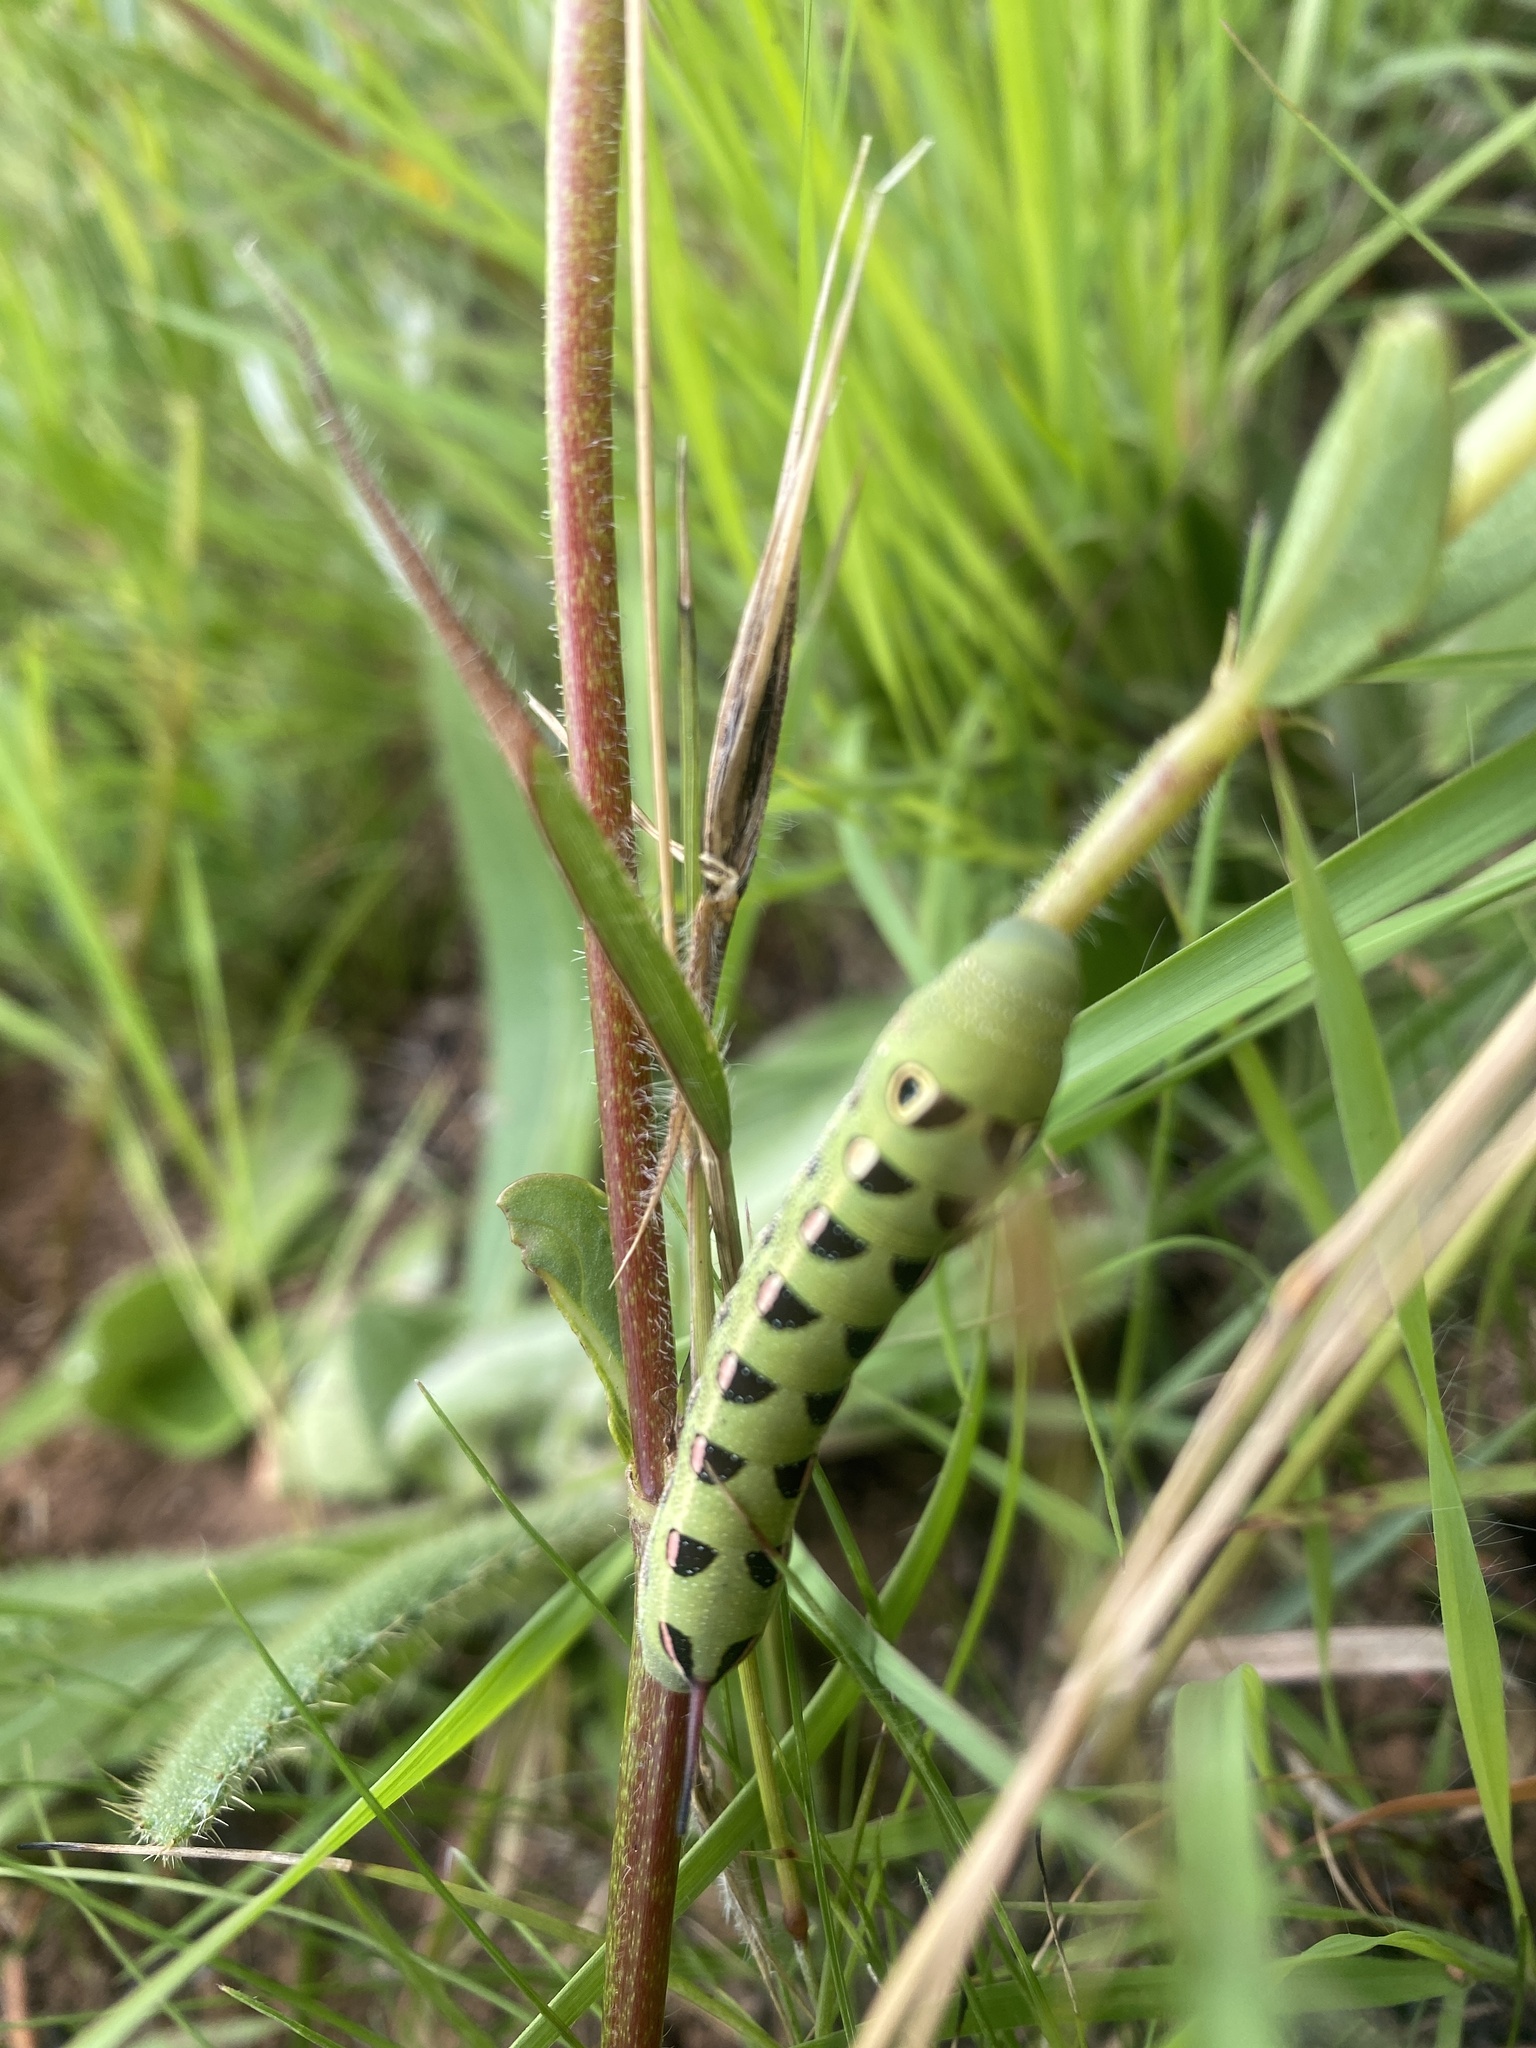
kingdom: Animalia
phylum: Arthropoda
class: Insecta
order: Lepidoptera
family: Sphingidae
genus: Basiothia
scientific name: Basiothia medea
